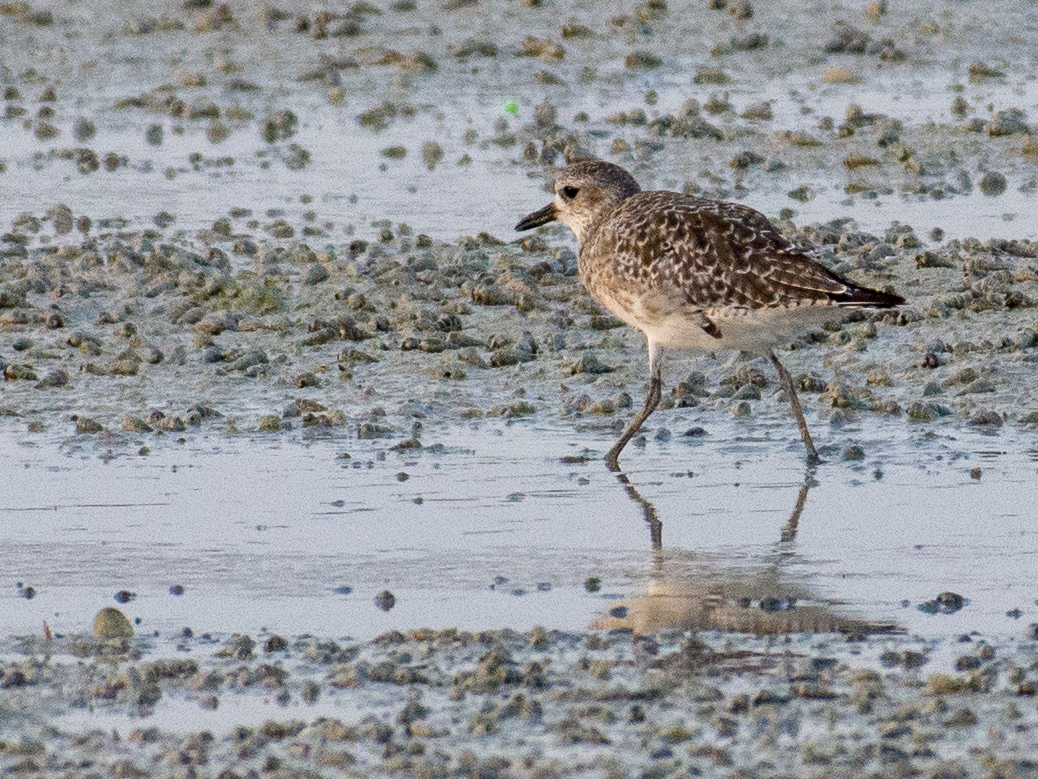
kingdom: Animalia
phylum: Chordata
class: Aves
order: Charadriiformes
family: Charadriidae
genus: Pluvialis
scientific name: Pluvialis squatarola
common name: Grey plover
